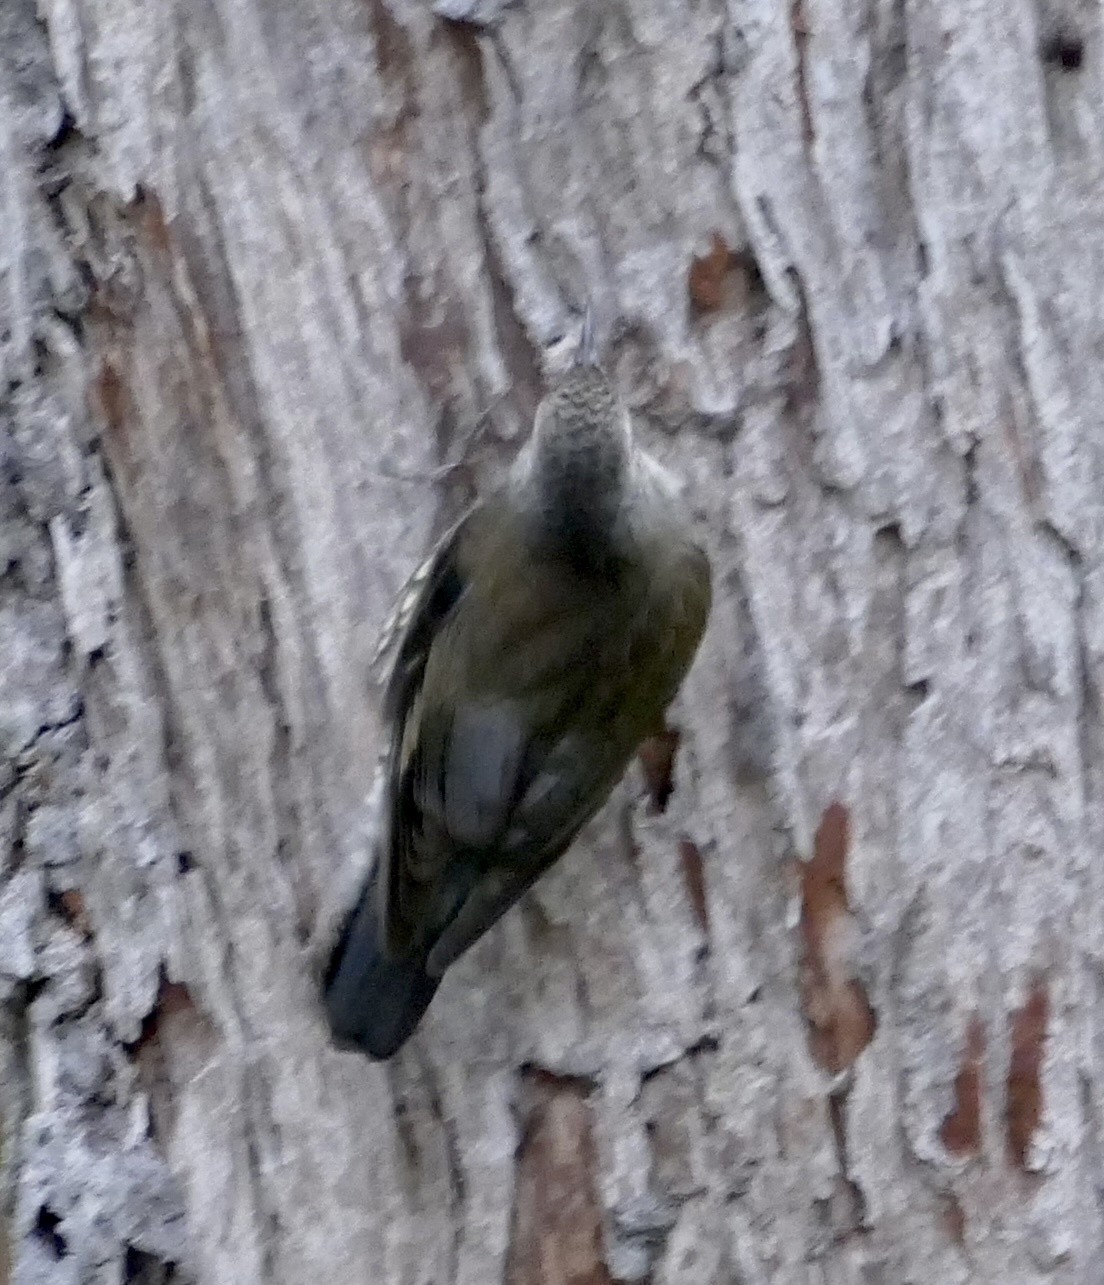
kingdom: Animalia
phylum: Chordata
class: Aves
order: Passeriformes
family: Climacteridae
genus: Cormobates
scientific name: Cormobates leucophaea
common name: White-throated treecreeper
